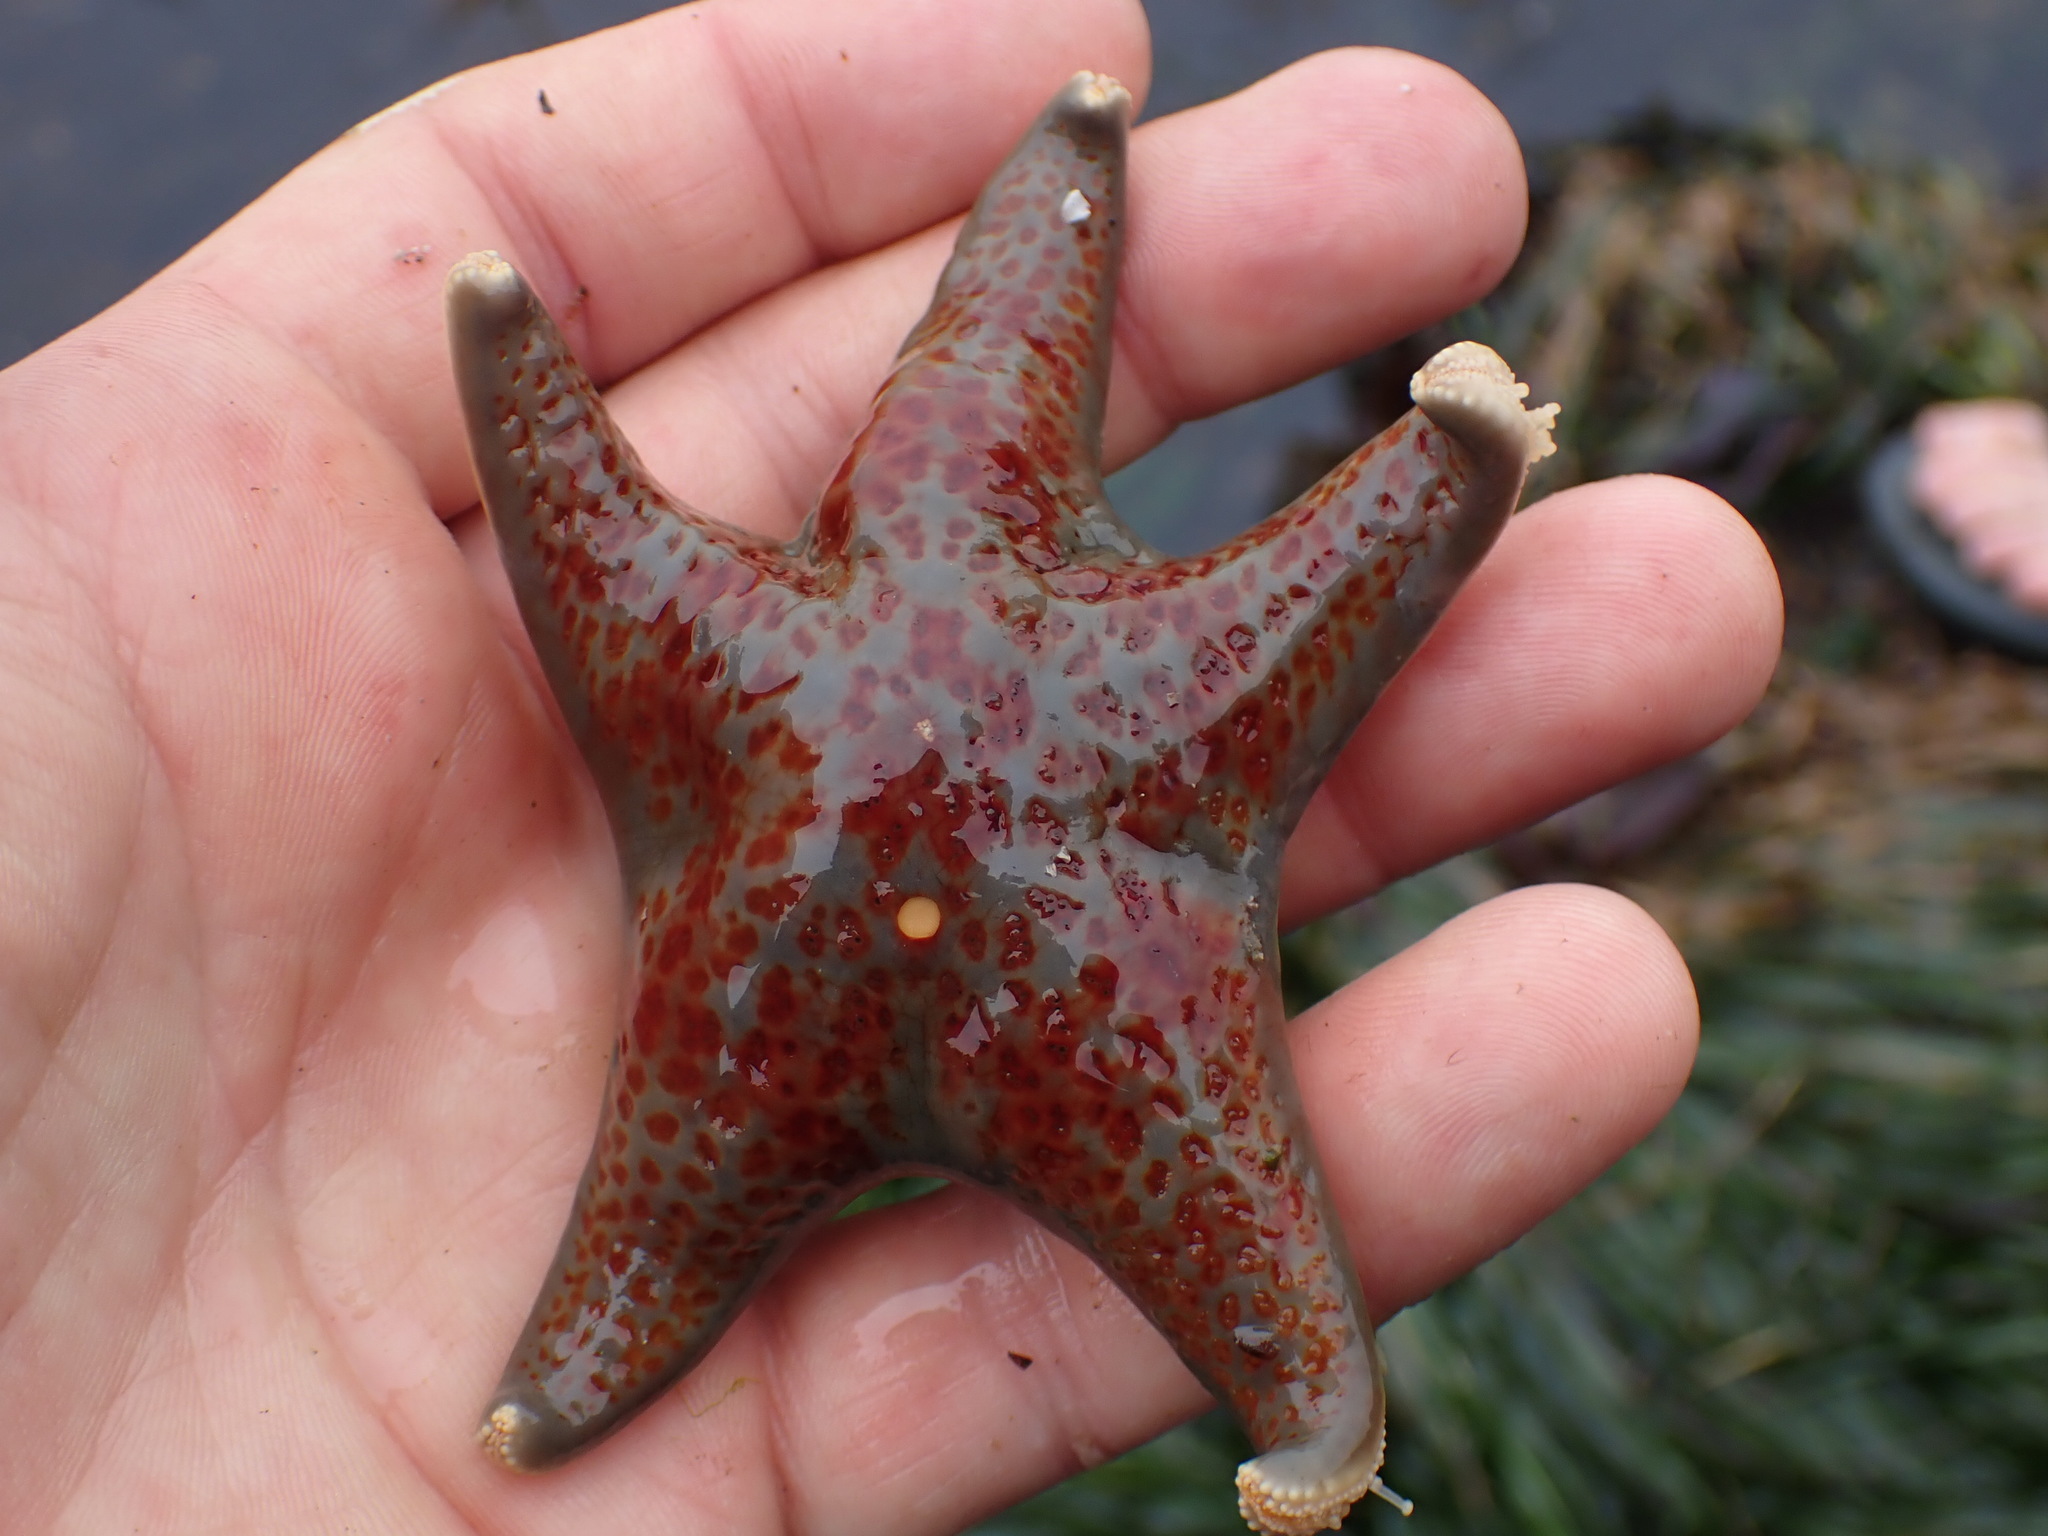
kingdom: Animalia
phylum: Echinodermata
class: Asteroidea
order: Valvatida
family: Asteropseidae
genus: Dermasterias
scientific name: Dermasterias imbricata
